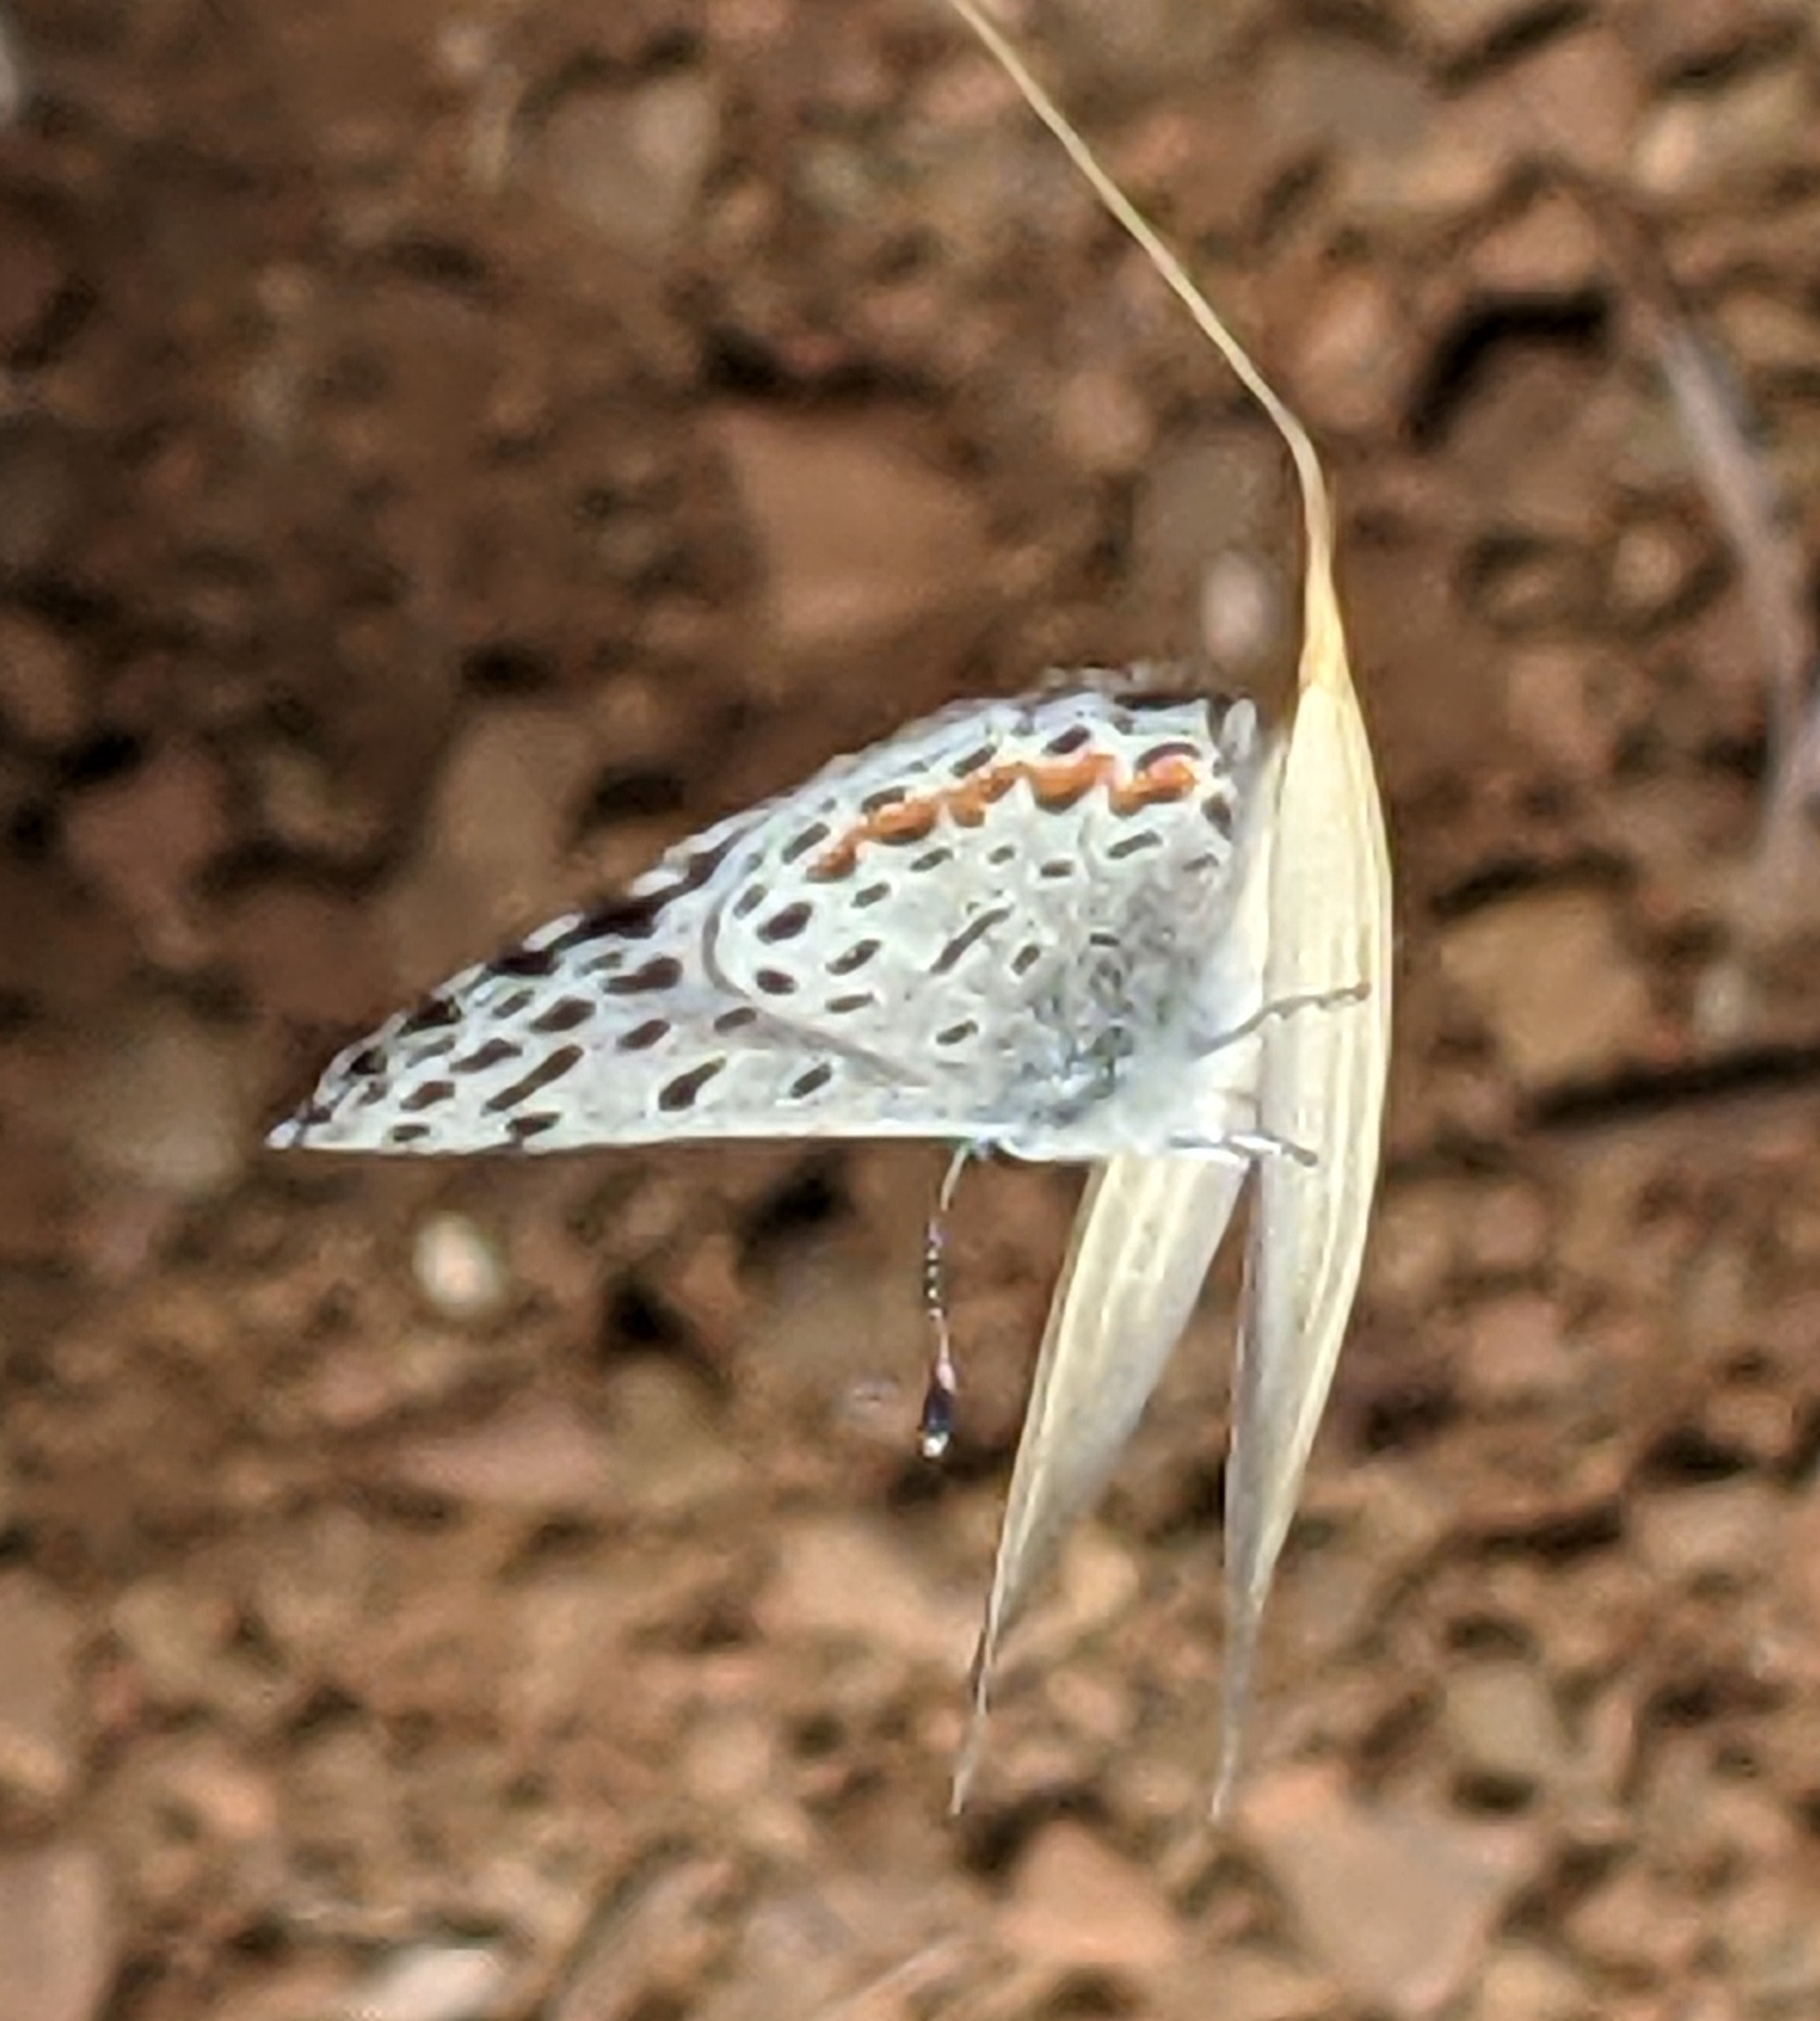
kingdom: Animalia
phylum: Arthropoda
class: Insecta
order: Lepidoptera
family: Lycaenidae
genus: Euphilotes
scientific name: Euphilotes enoptes
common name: Dotted blue
